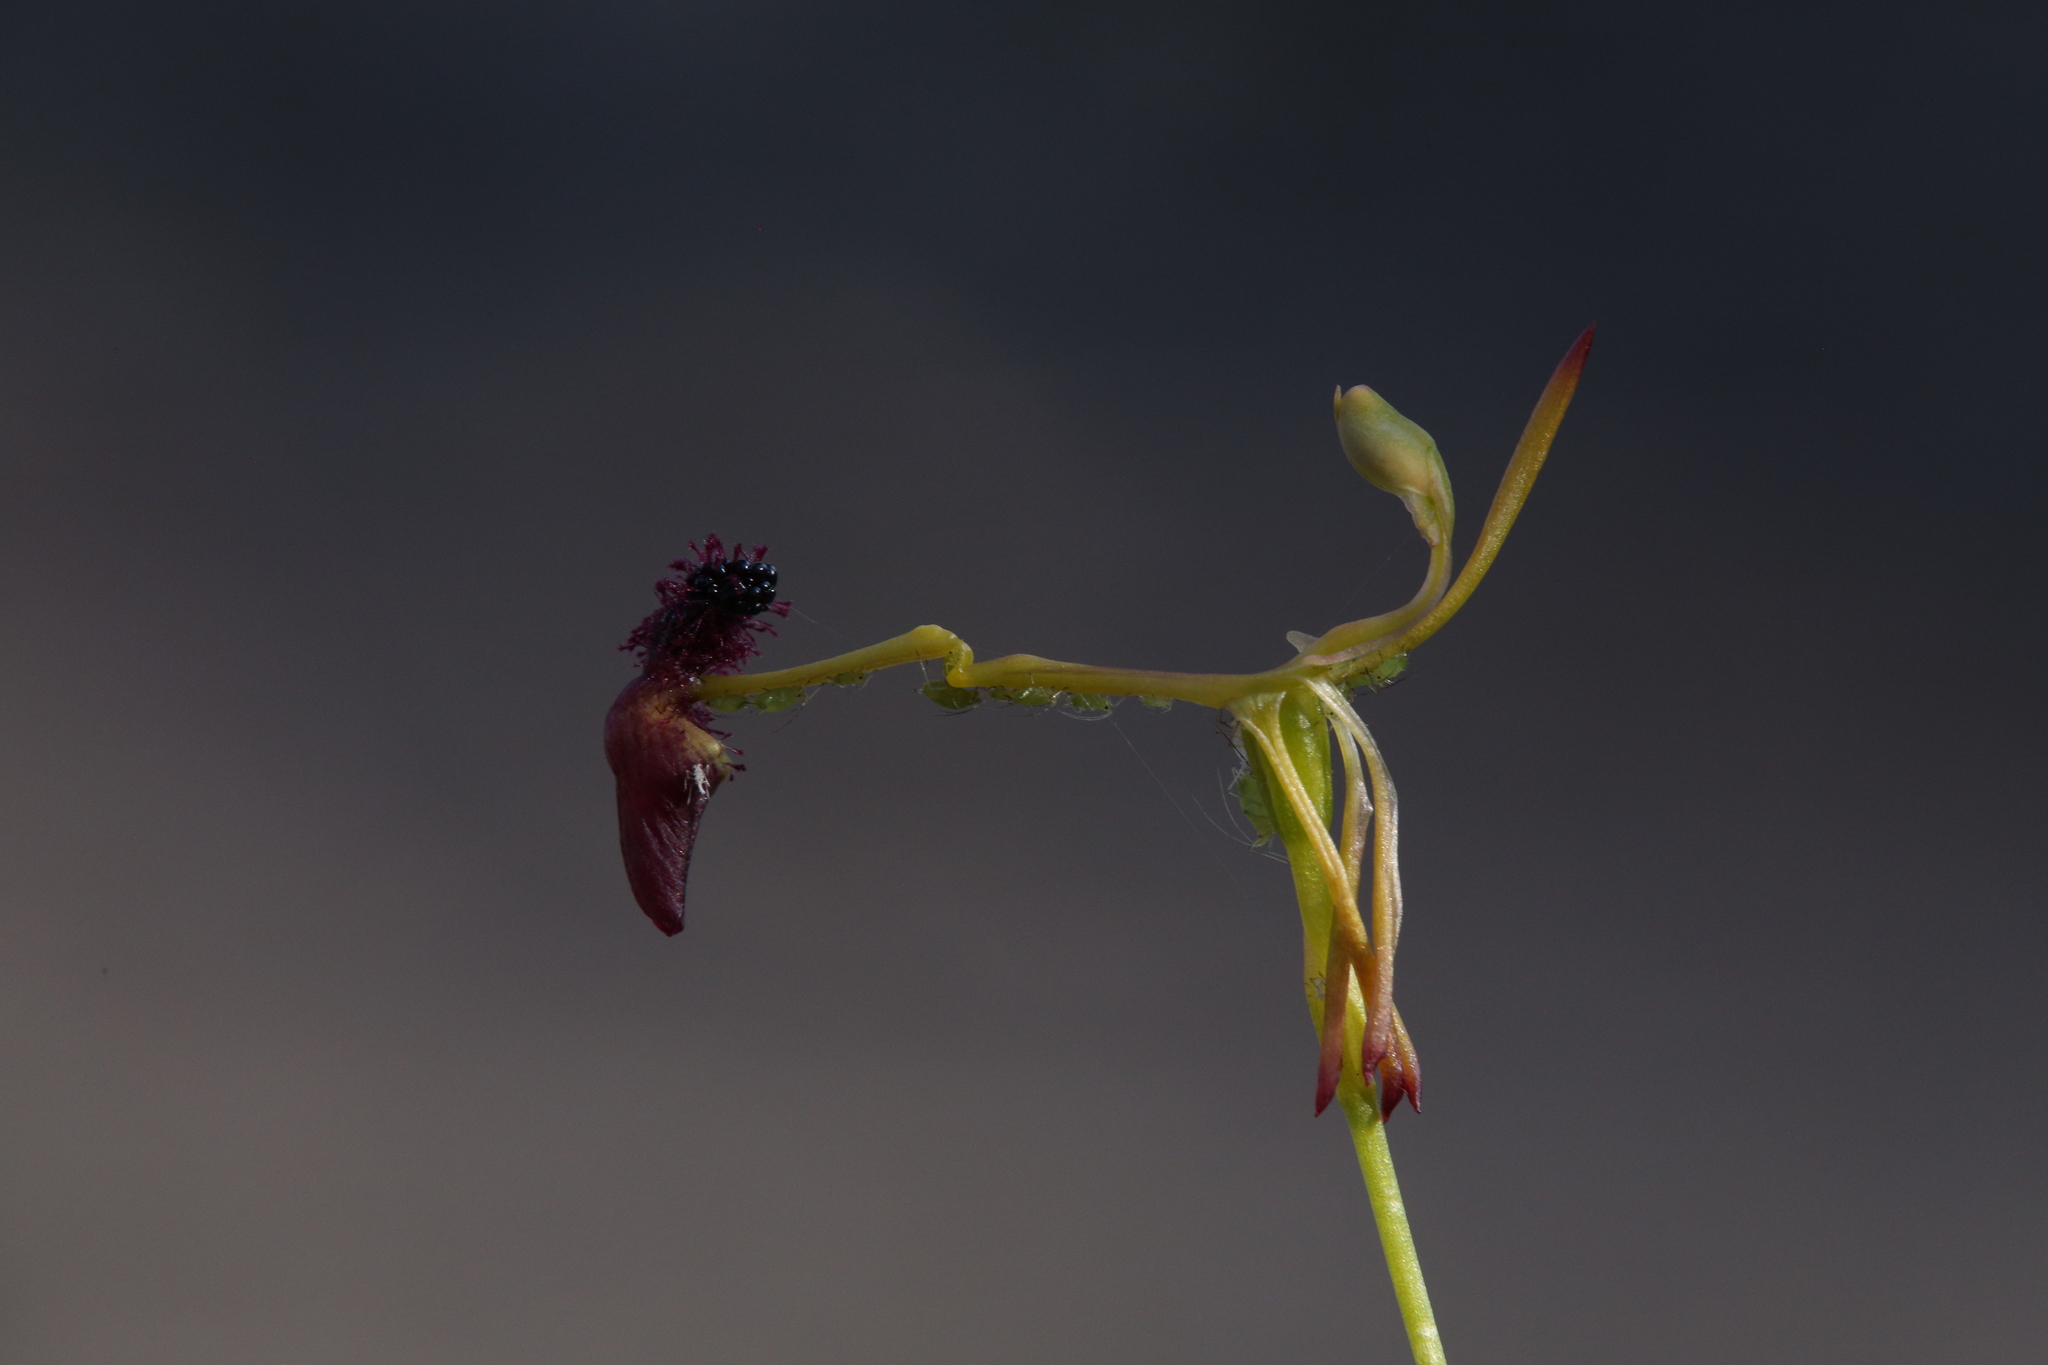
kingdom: Plantae
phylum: Tracheophyta
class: Liliopsida
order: Asparagales
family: Orchidaceae
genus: Drakaea
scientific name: Drakaea elastica
